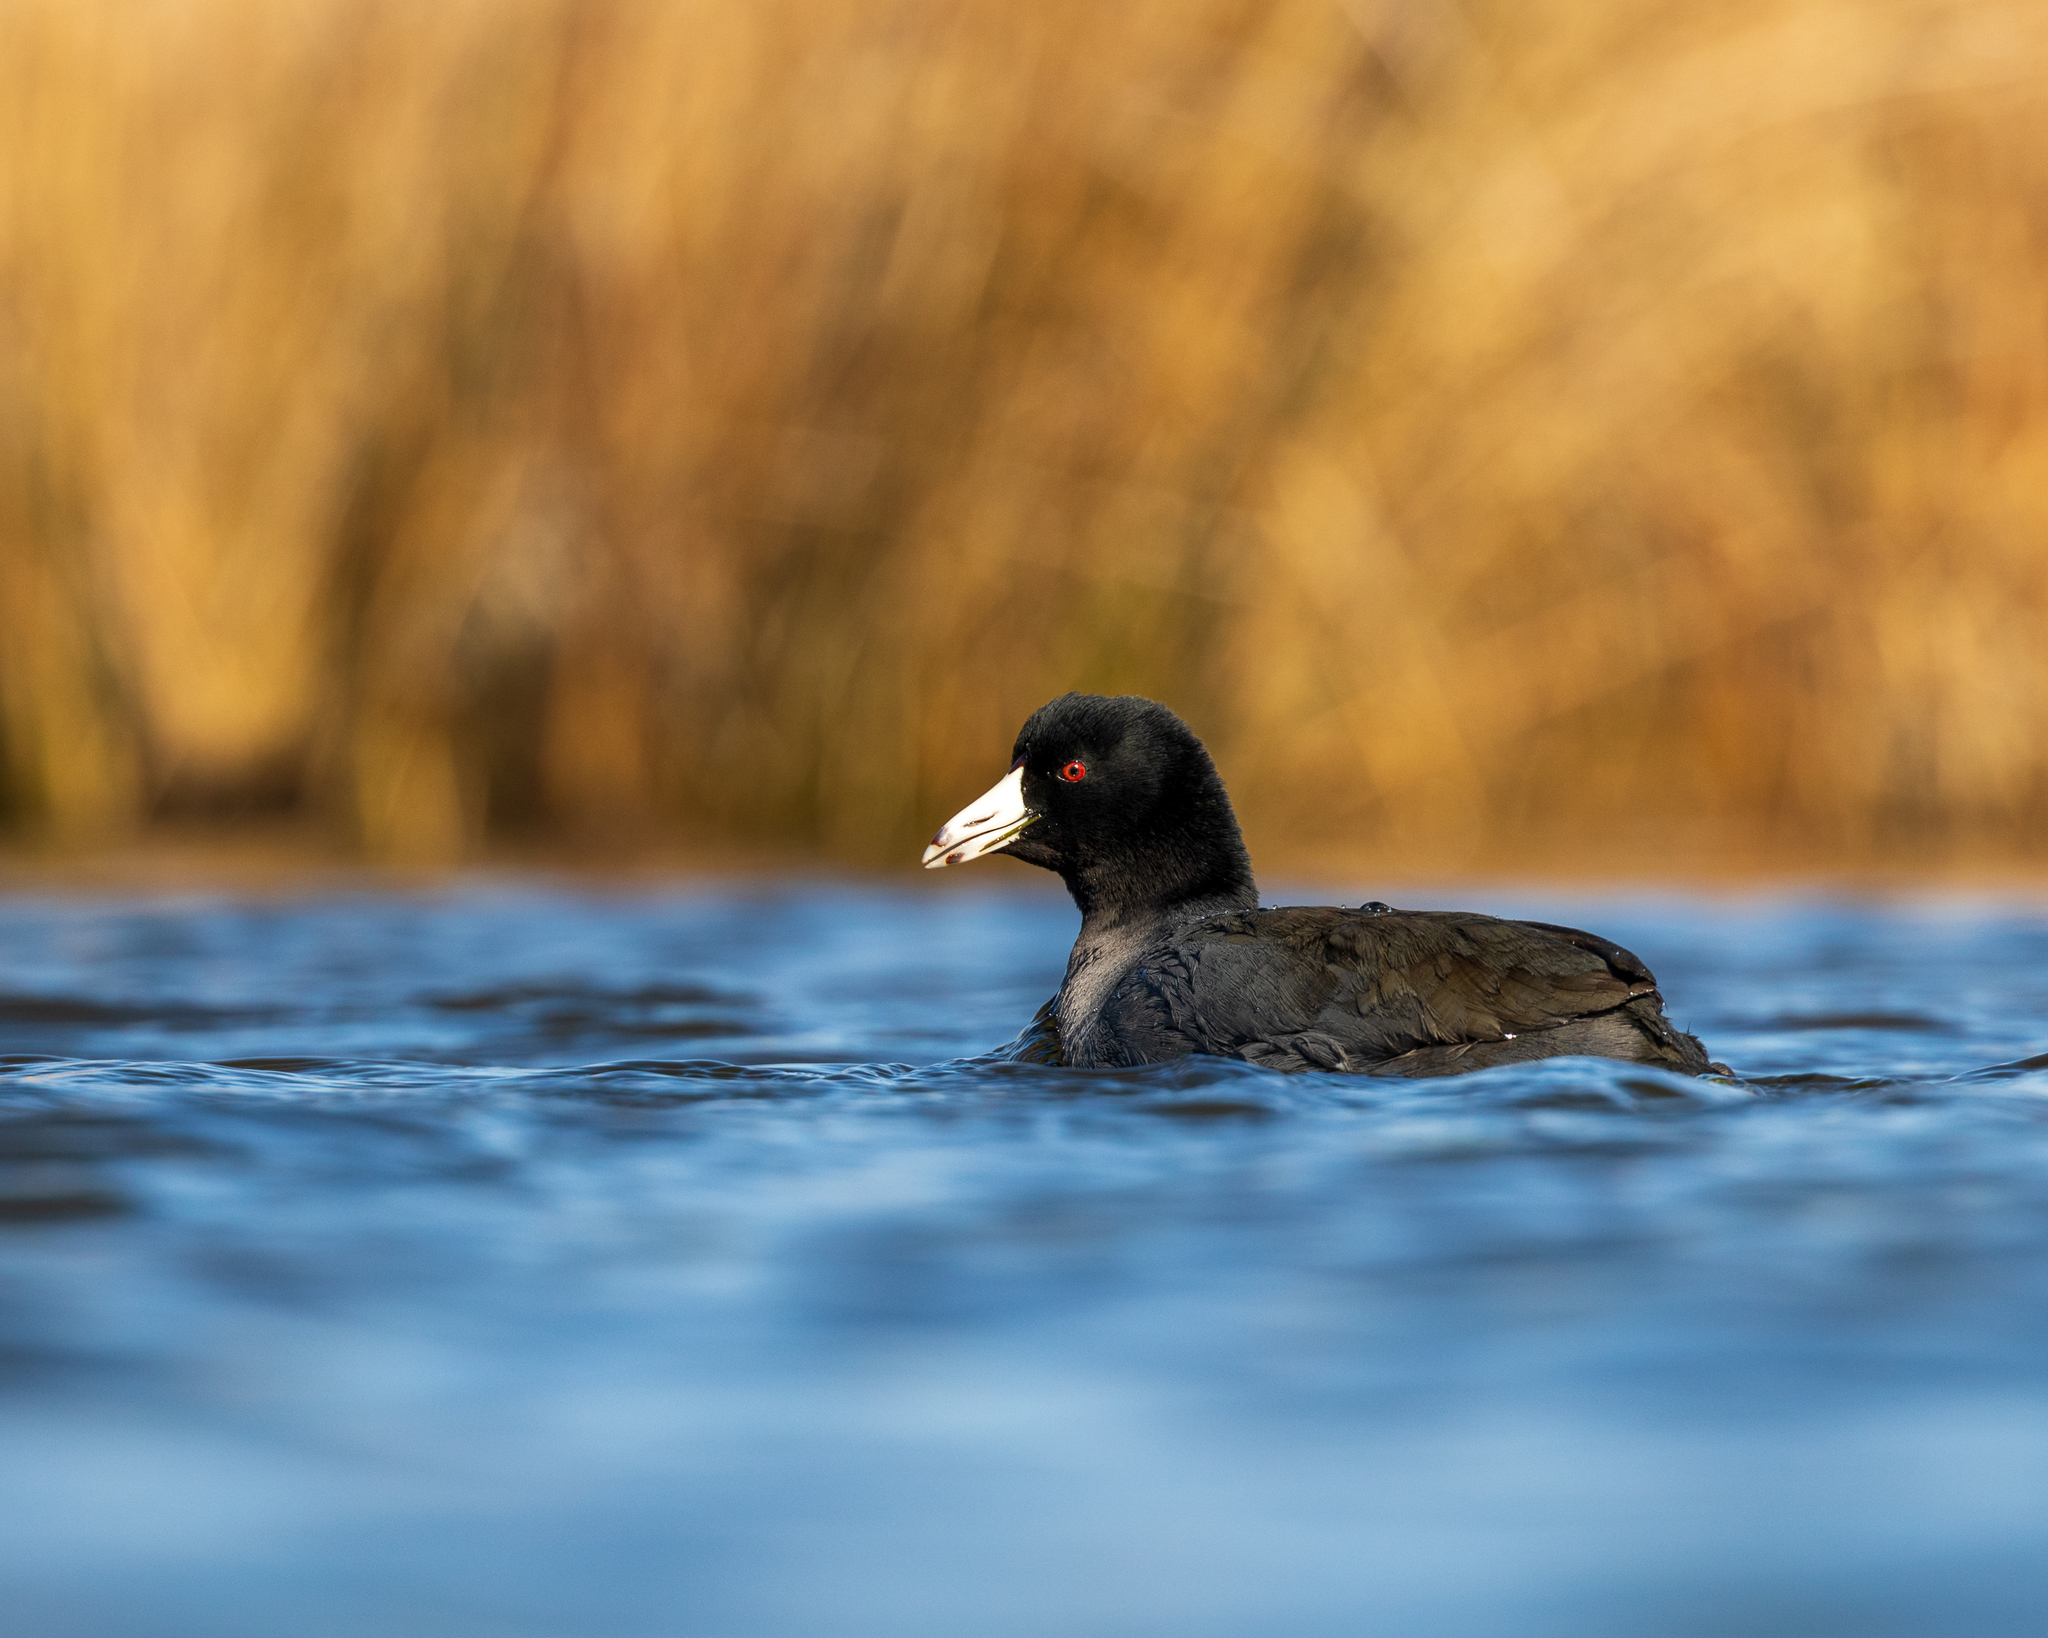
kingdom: Animalia
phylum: Chordata
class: Aves
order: Gruiformes
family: Rallidae
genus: Fulica
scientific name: Fulica americana
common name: American coot
